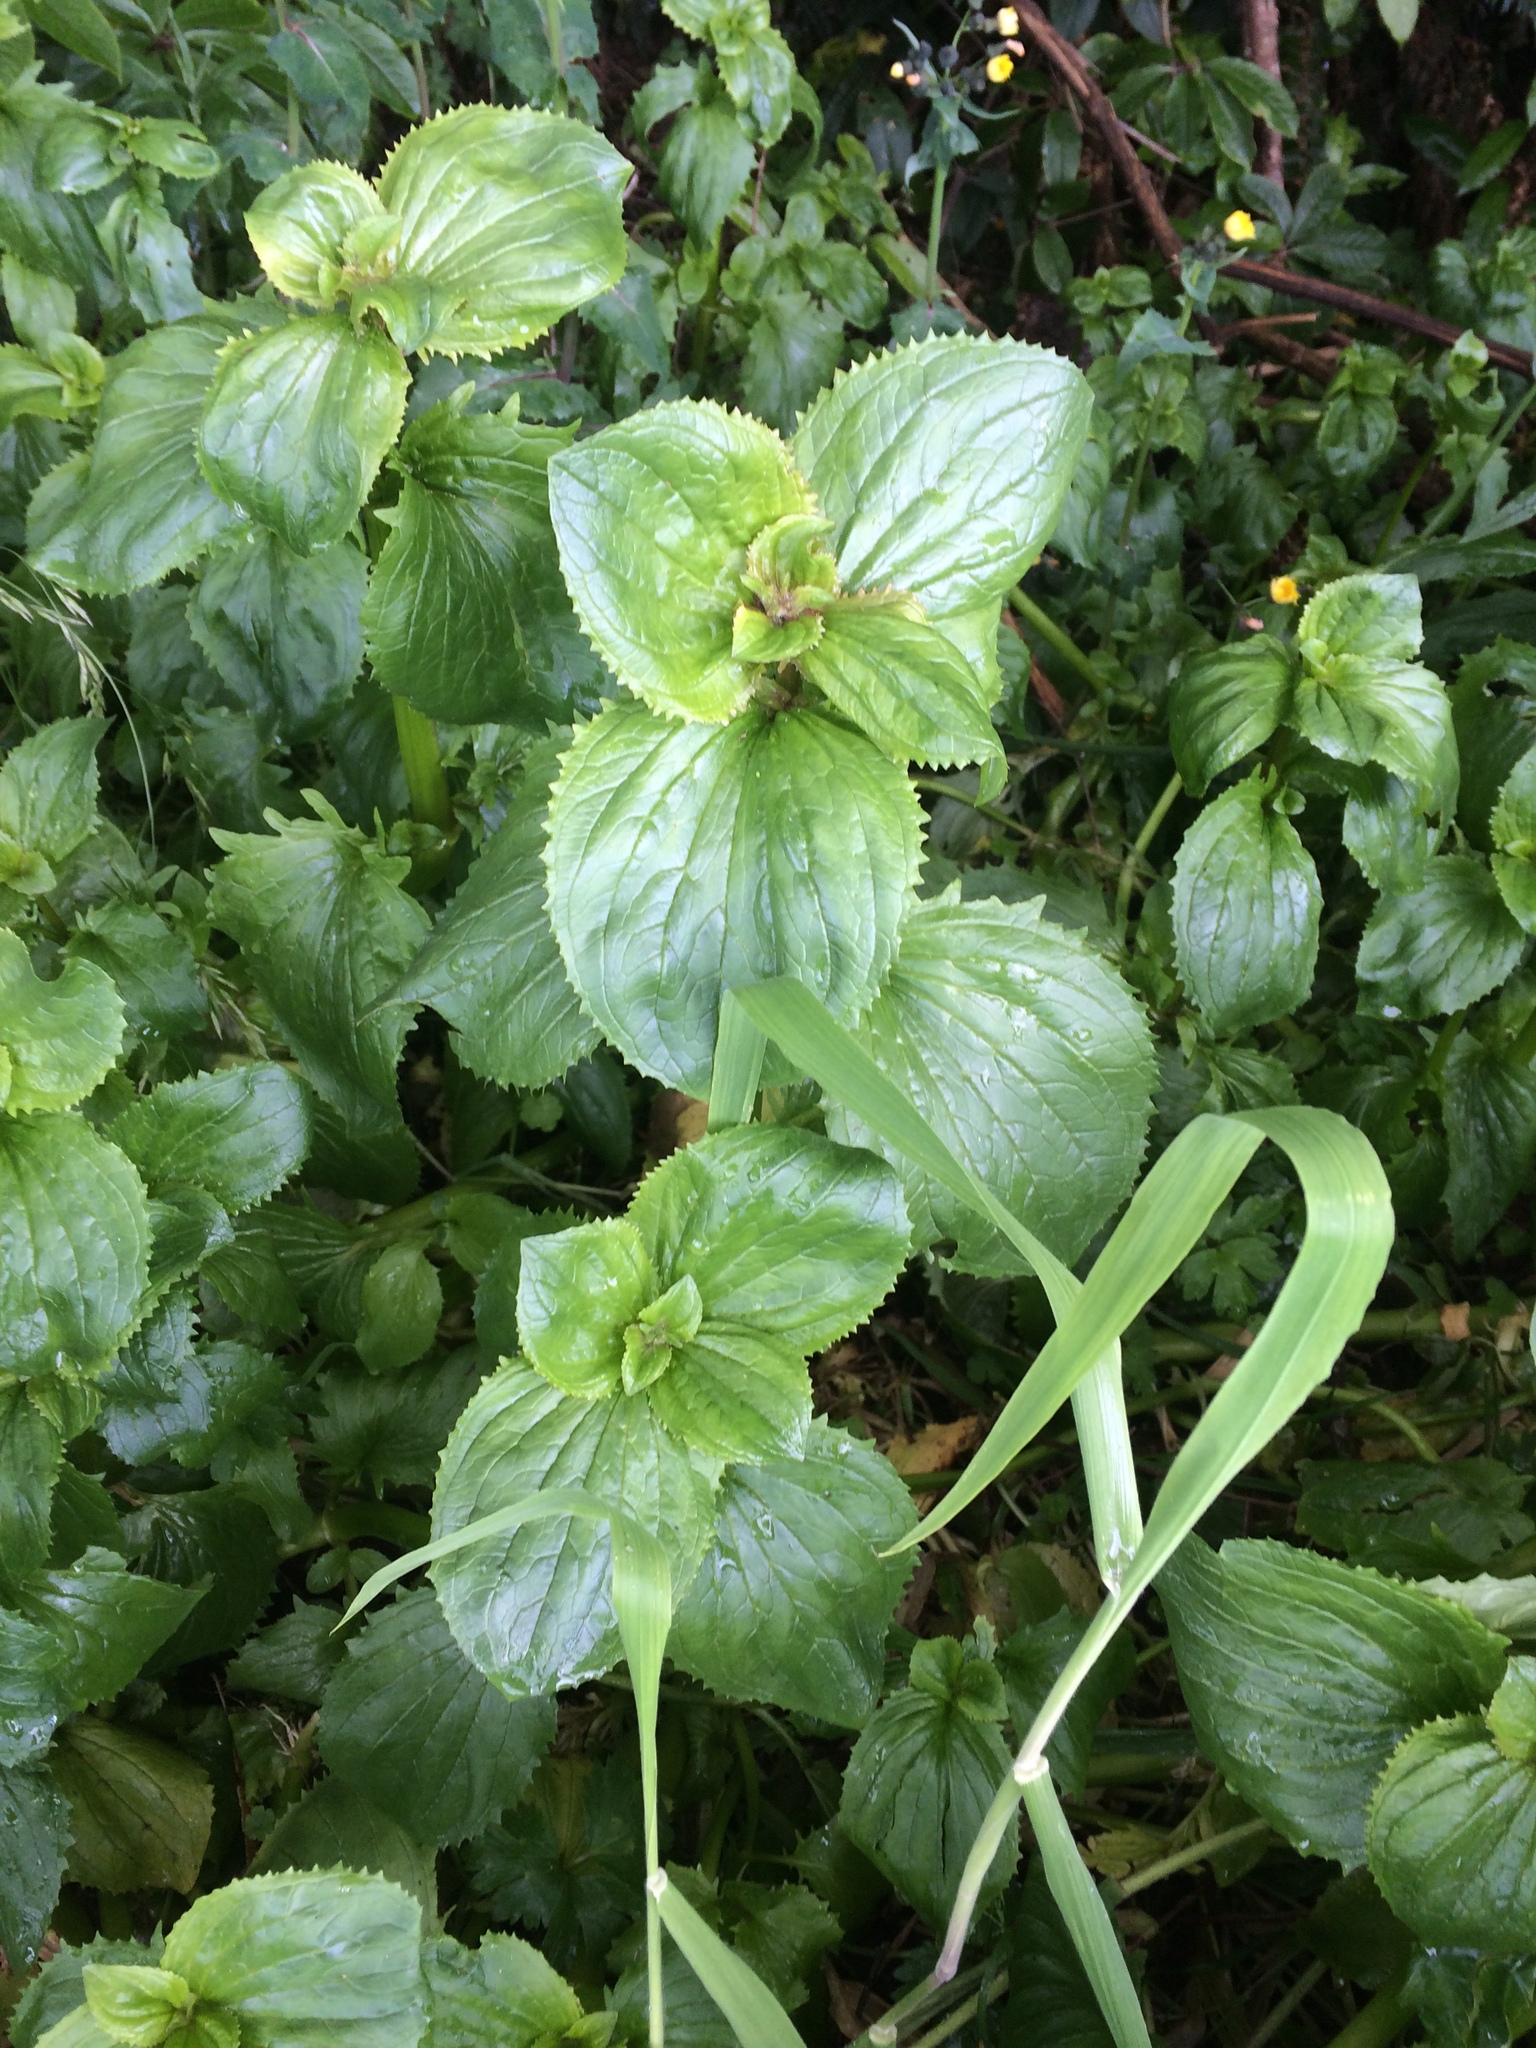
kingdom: Plantae
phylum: Tracheophyta
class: Magnoliopsida
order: Lamiales
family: Phrymaceae
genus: Erythranthe
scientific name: Erythranthe guttata
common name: Monkeyflower
